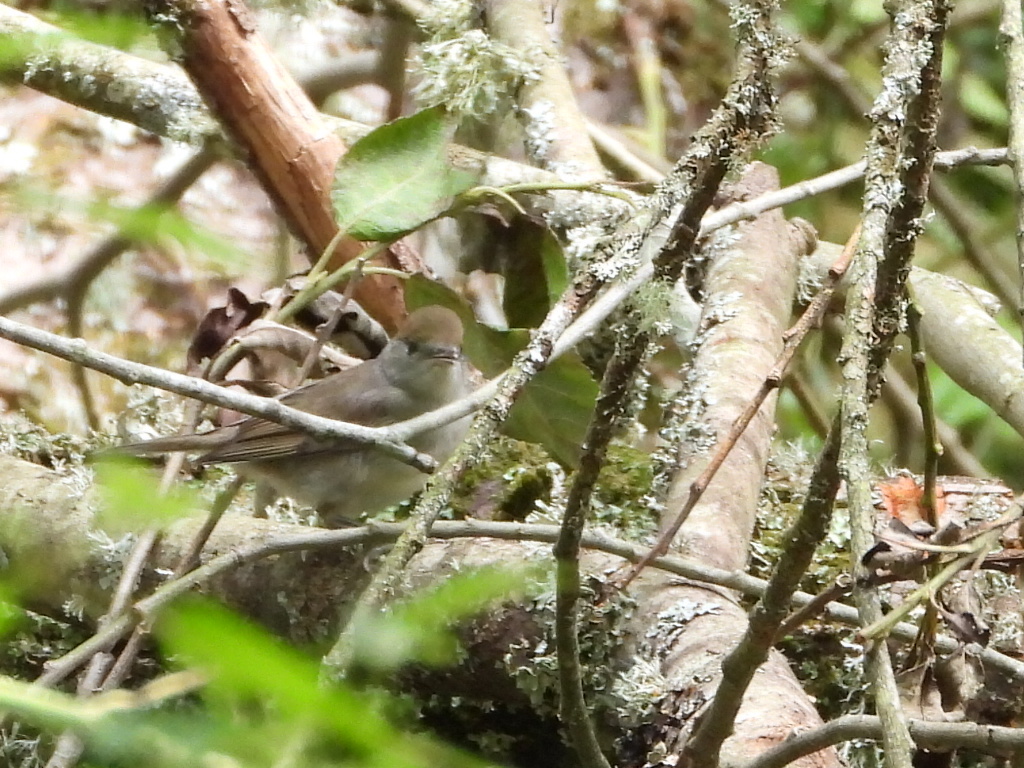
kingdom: Animalia
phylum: Chordata
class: Aves
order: Passeriformes
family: Sylviidae
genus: Sylvia
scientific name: Sylvia atricapilla
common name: Eurasian blackcap
